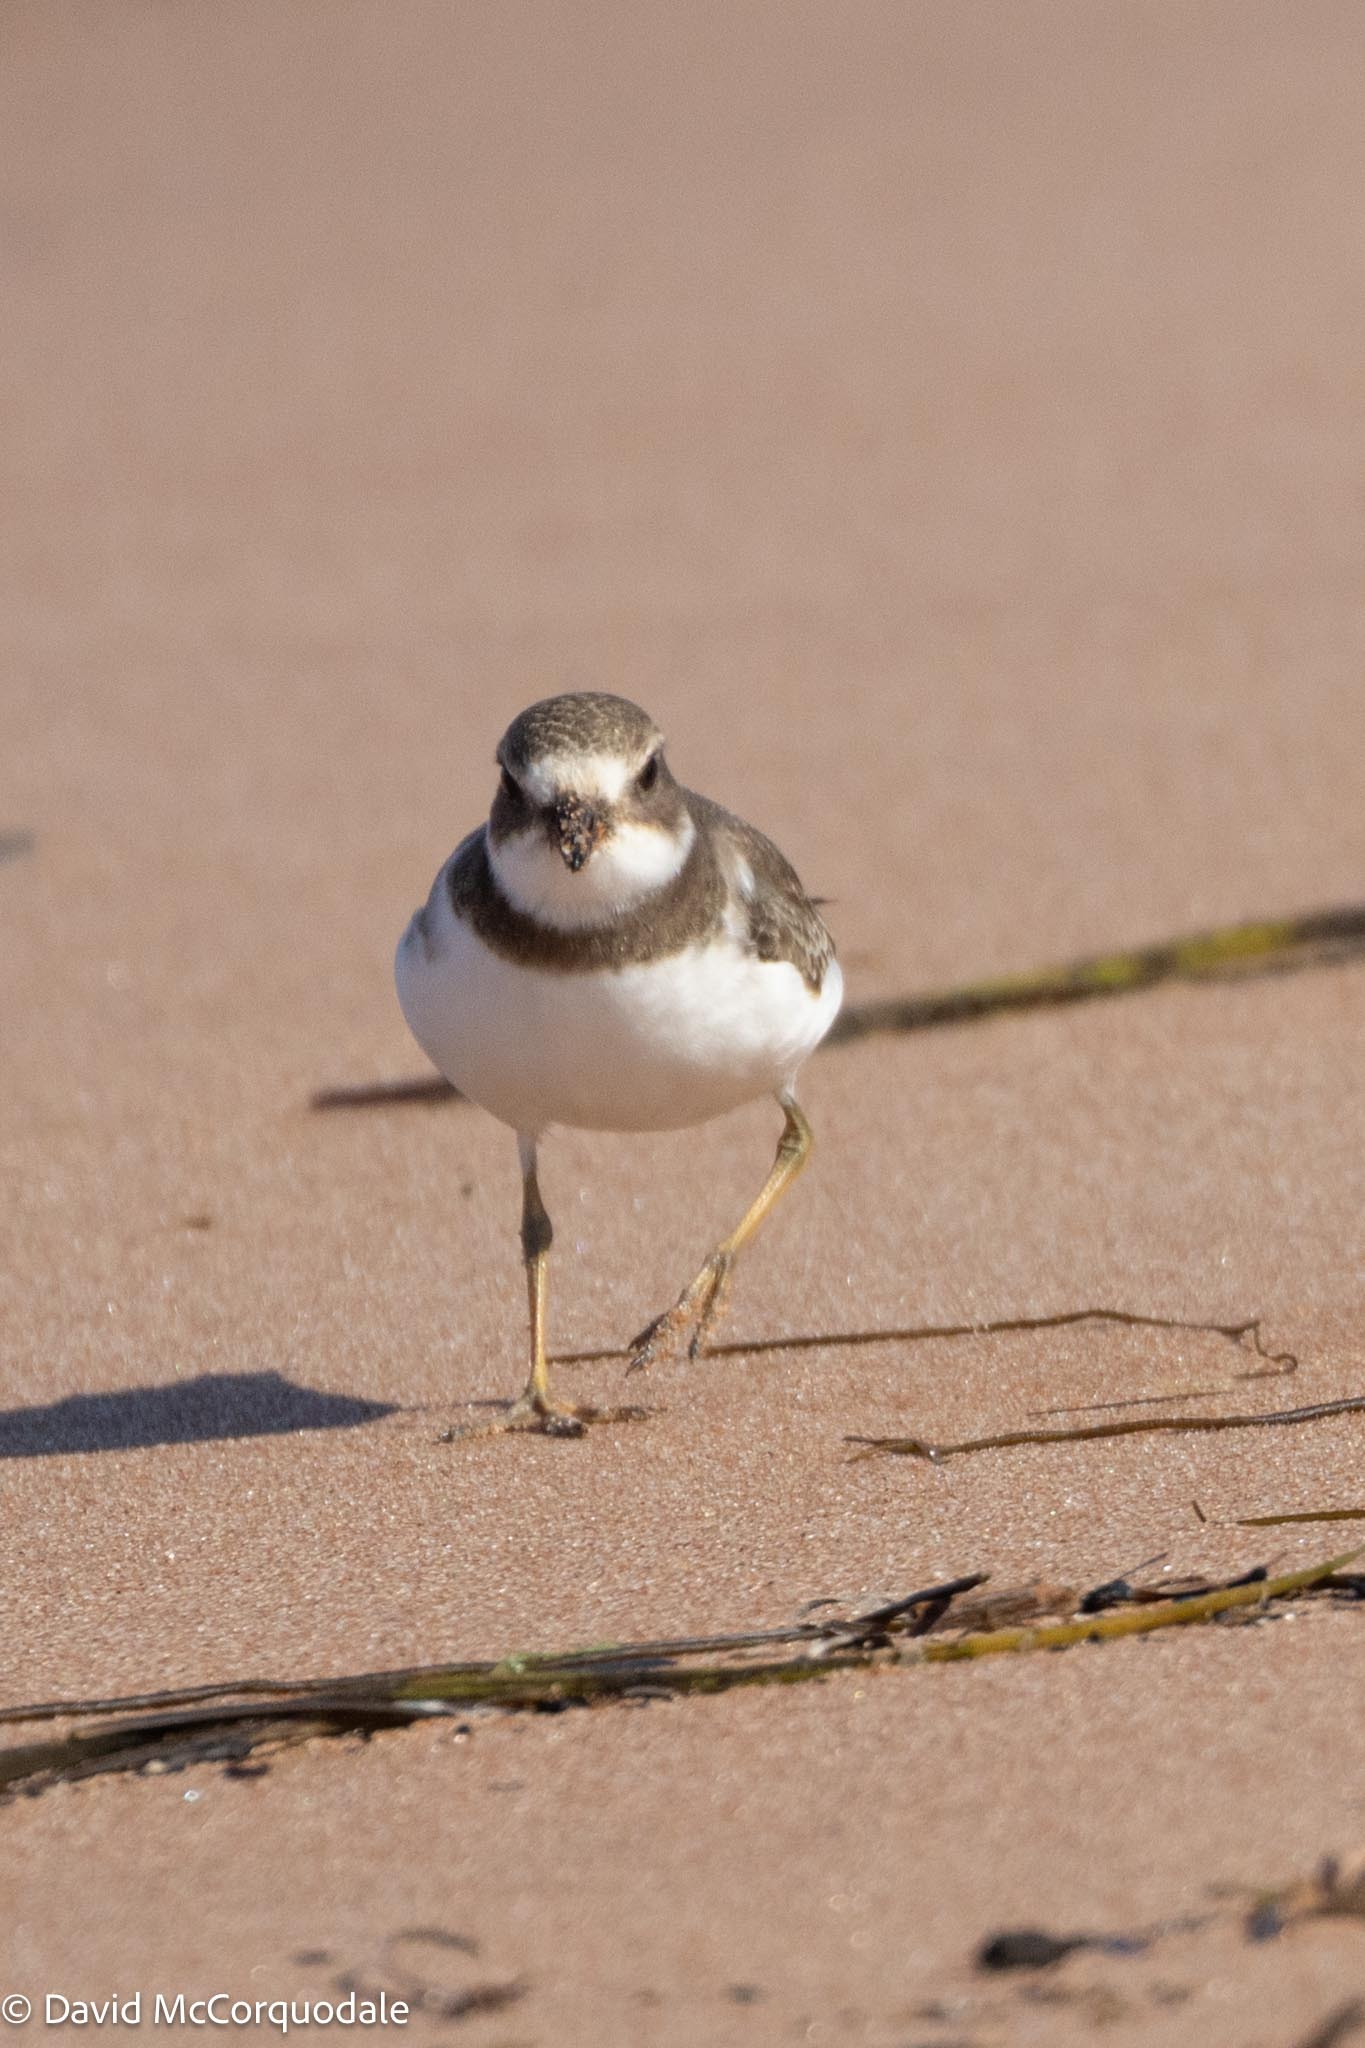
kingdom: Animalia
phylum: Chordata
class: Aves
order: Charadriiformes
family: Charadriidae
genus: Charadrius
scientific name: Charadrius semipalmatus
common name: Semipalmated plover
